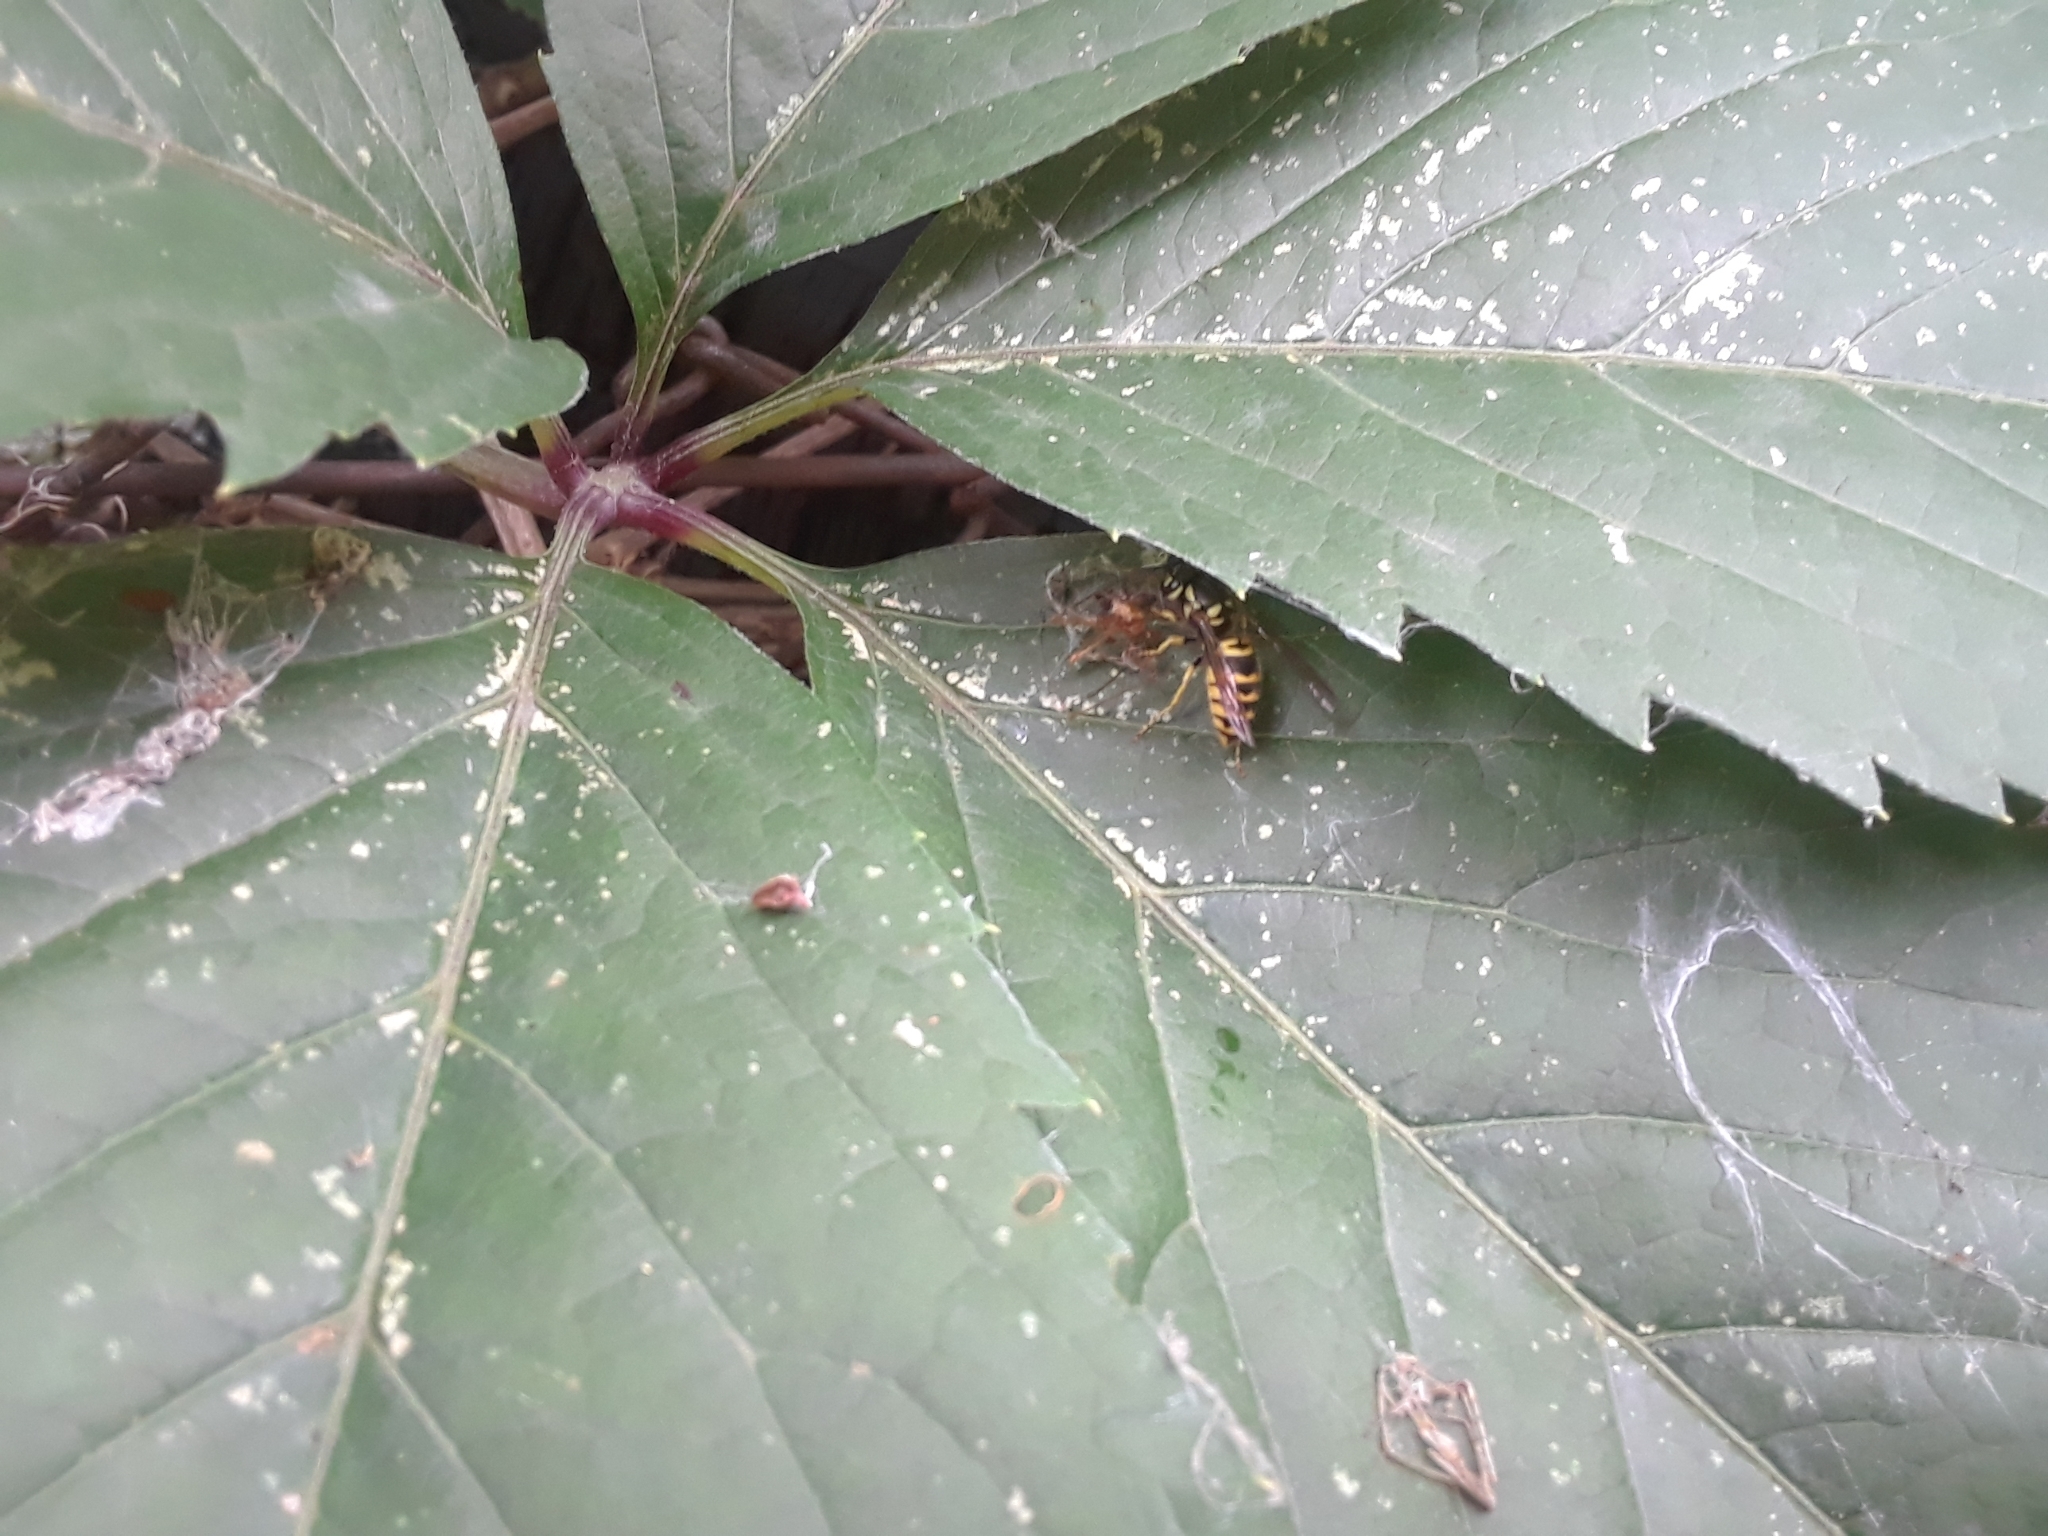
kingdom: Animalia
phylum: Arthropoda
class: Insecta
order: Hymenoptera
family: Vespidae
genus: Vespula
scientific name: Vespula maculifrons
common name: Eastern yellowjacket
